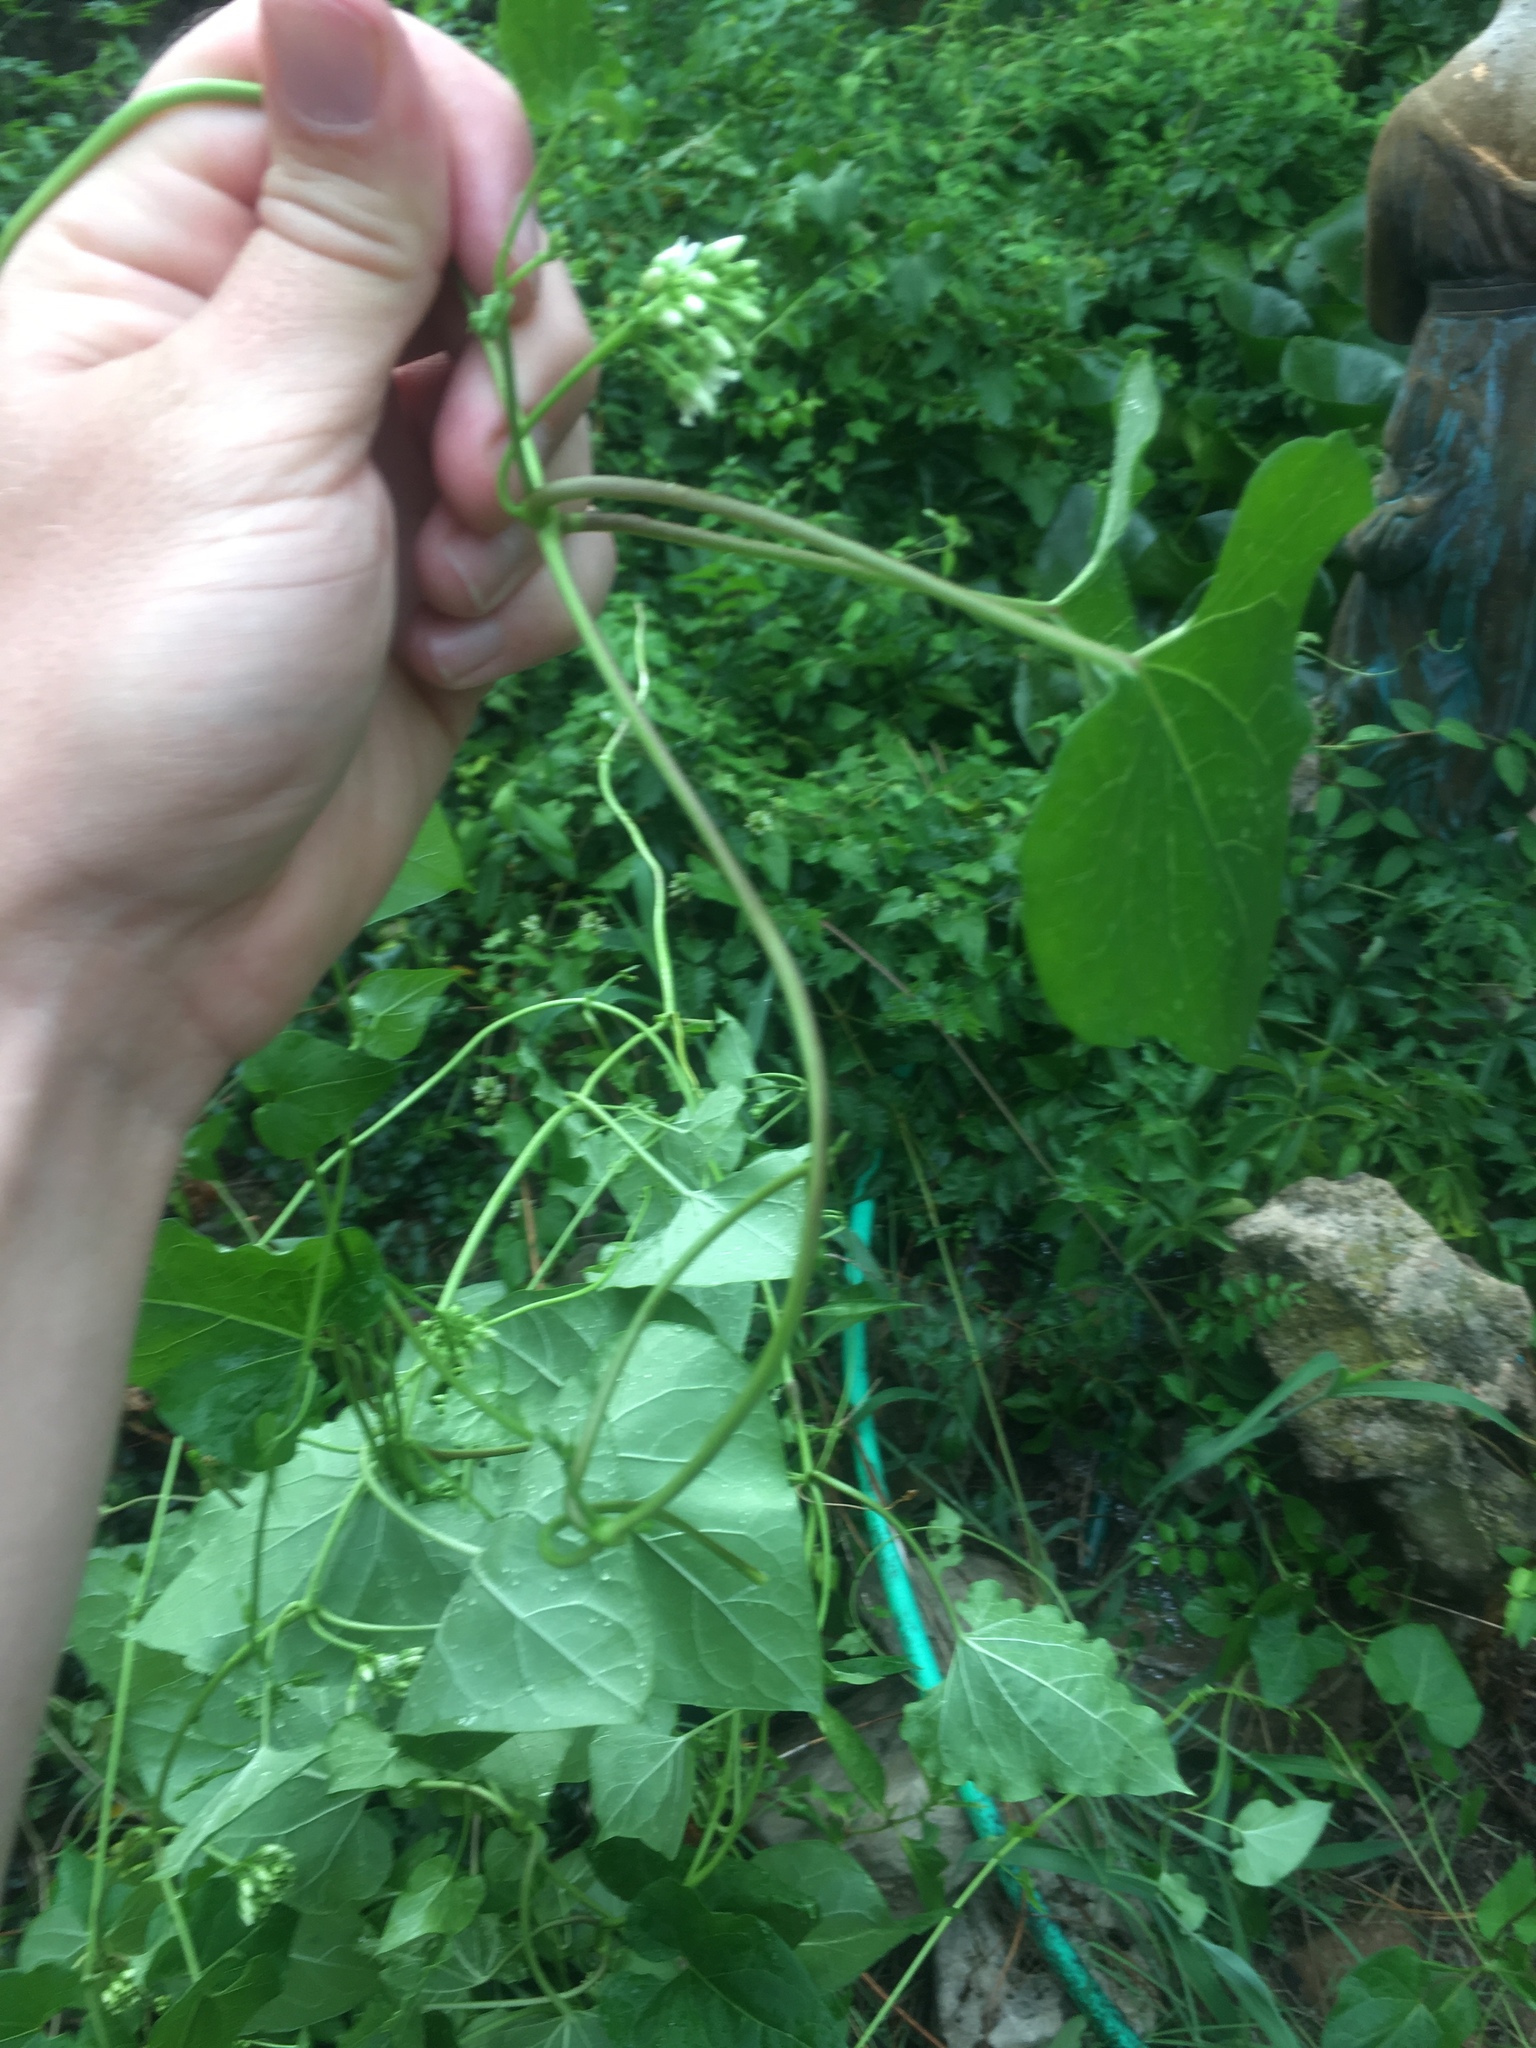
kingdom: Plantae
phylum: Tracheophyta
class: Magnoliopsida
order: Gentianales
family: Apocynaceae
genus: Cynanchum
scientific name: Cynanchum laeve
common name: Sandvine
